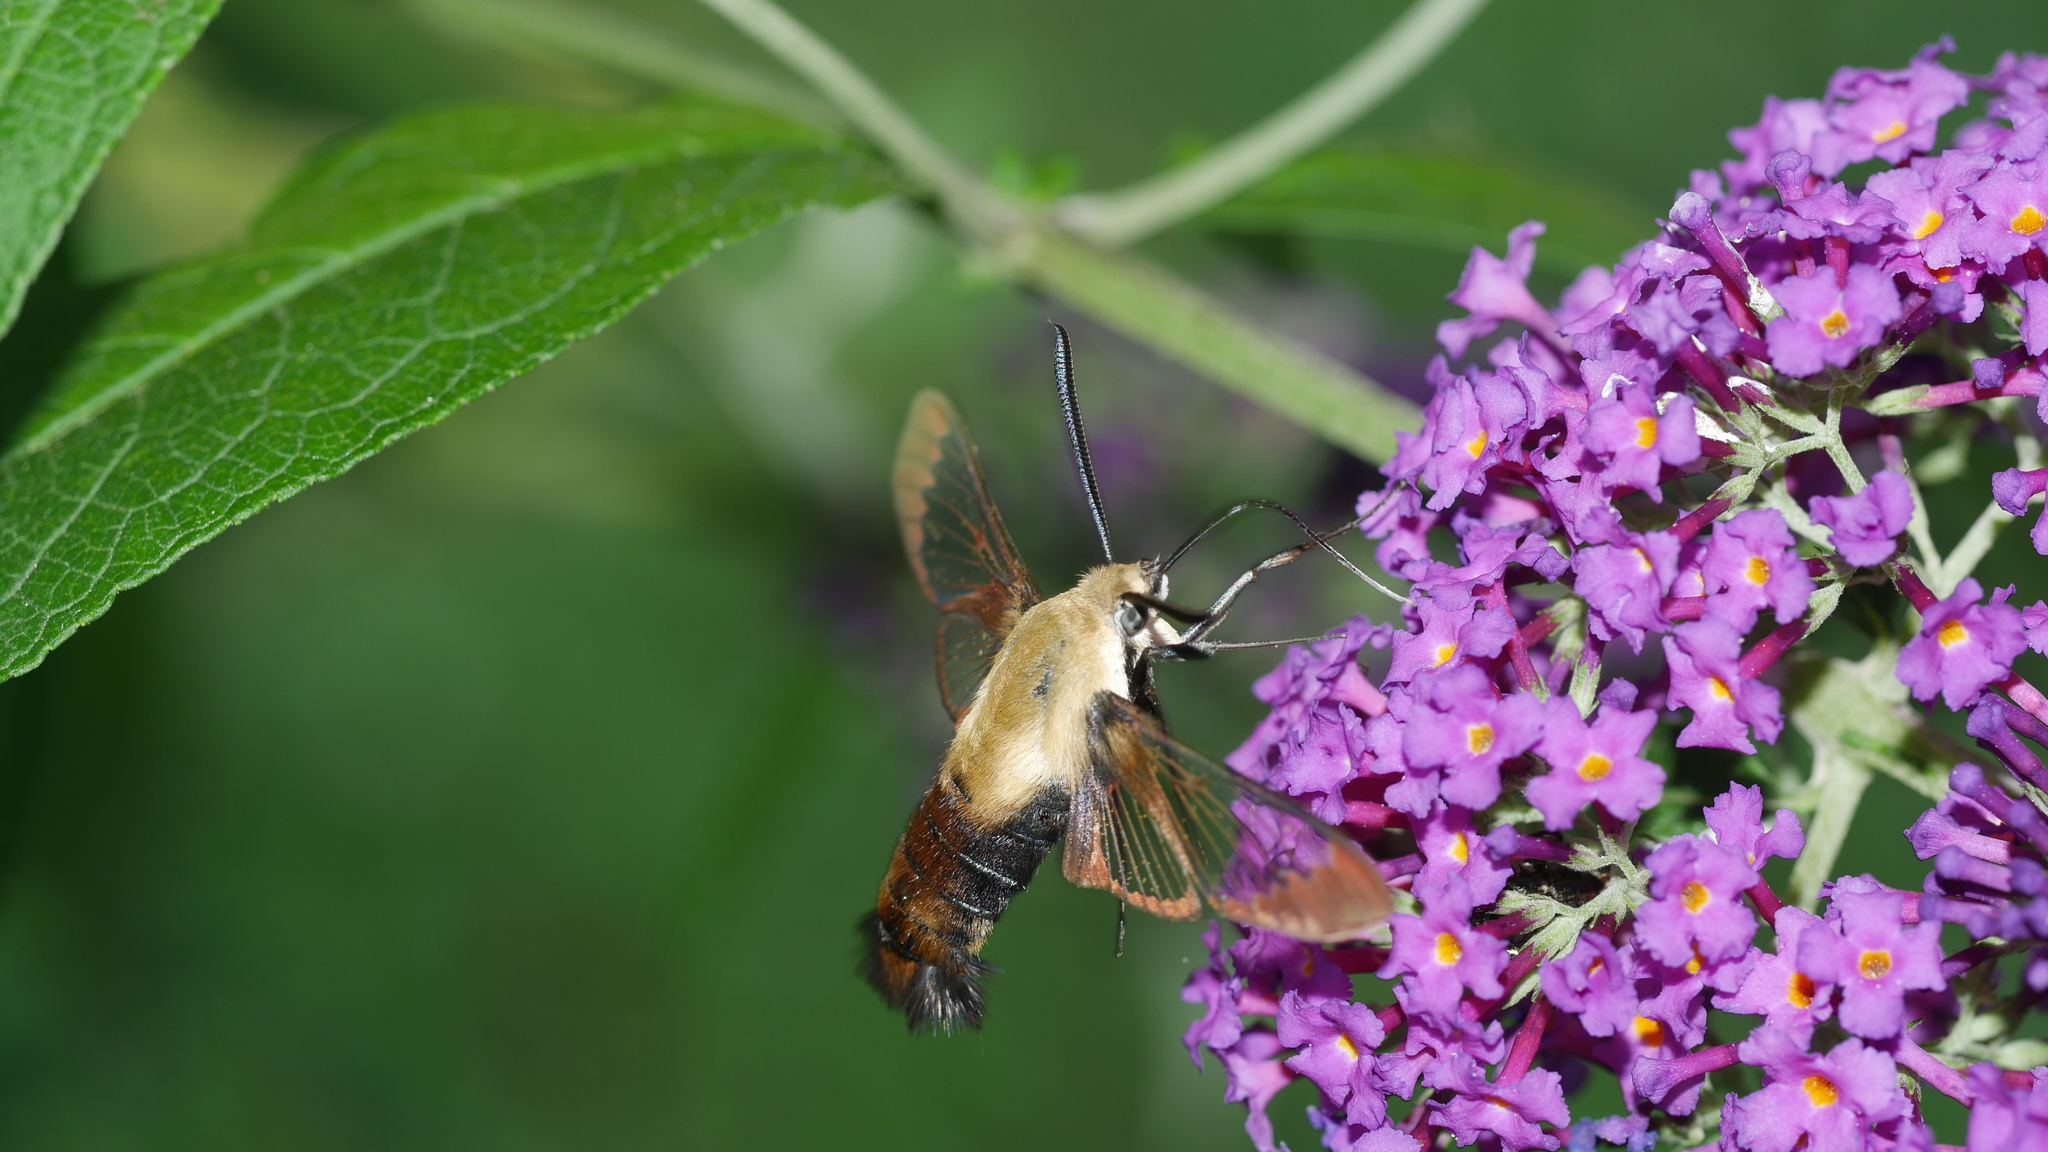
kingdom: Animalia
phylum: Arthropoda
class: Insecta
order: Lepidoptera
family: Sphingidae
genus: Hemaris
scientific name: Hemaris diffinis
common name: Bumblebee moth
